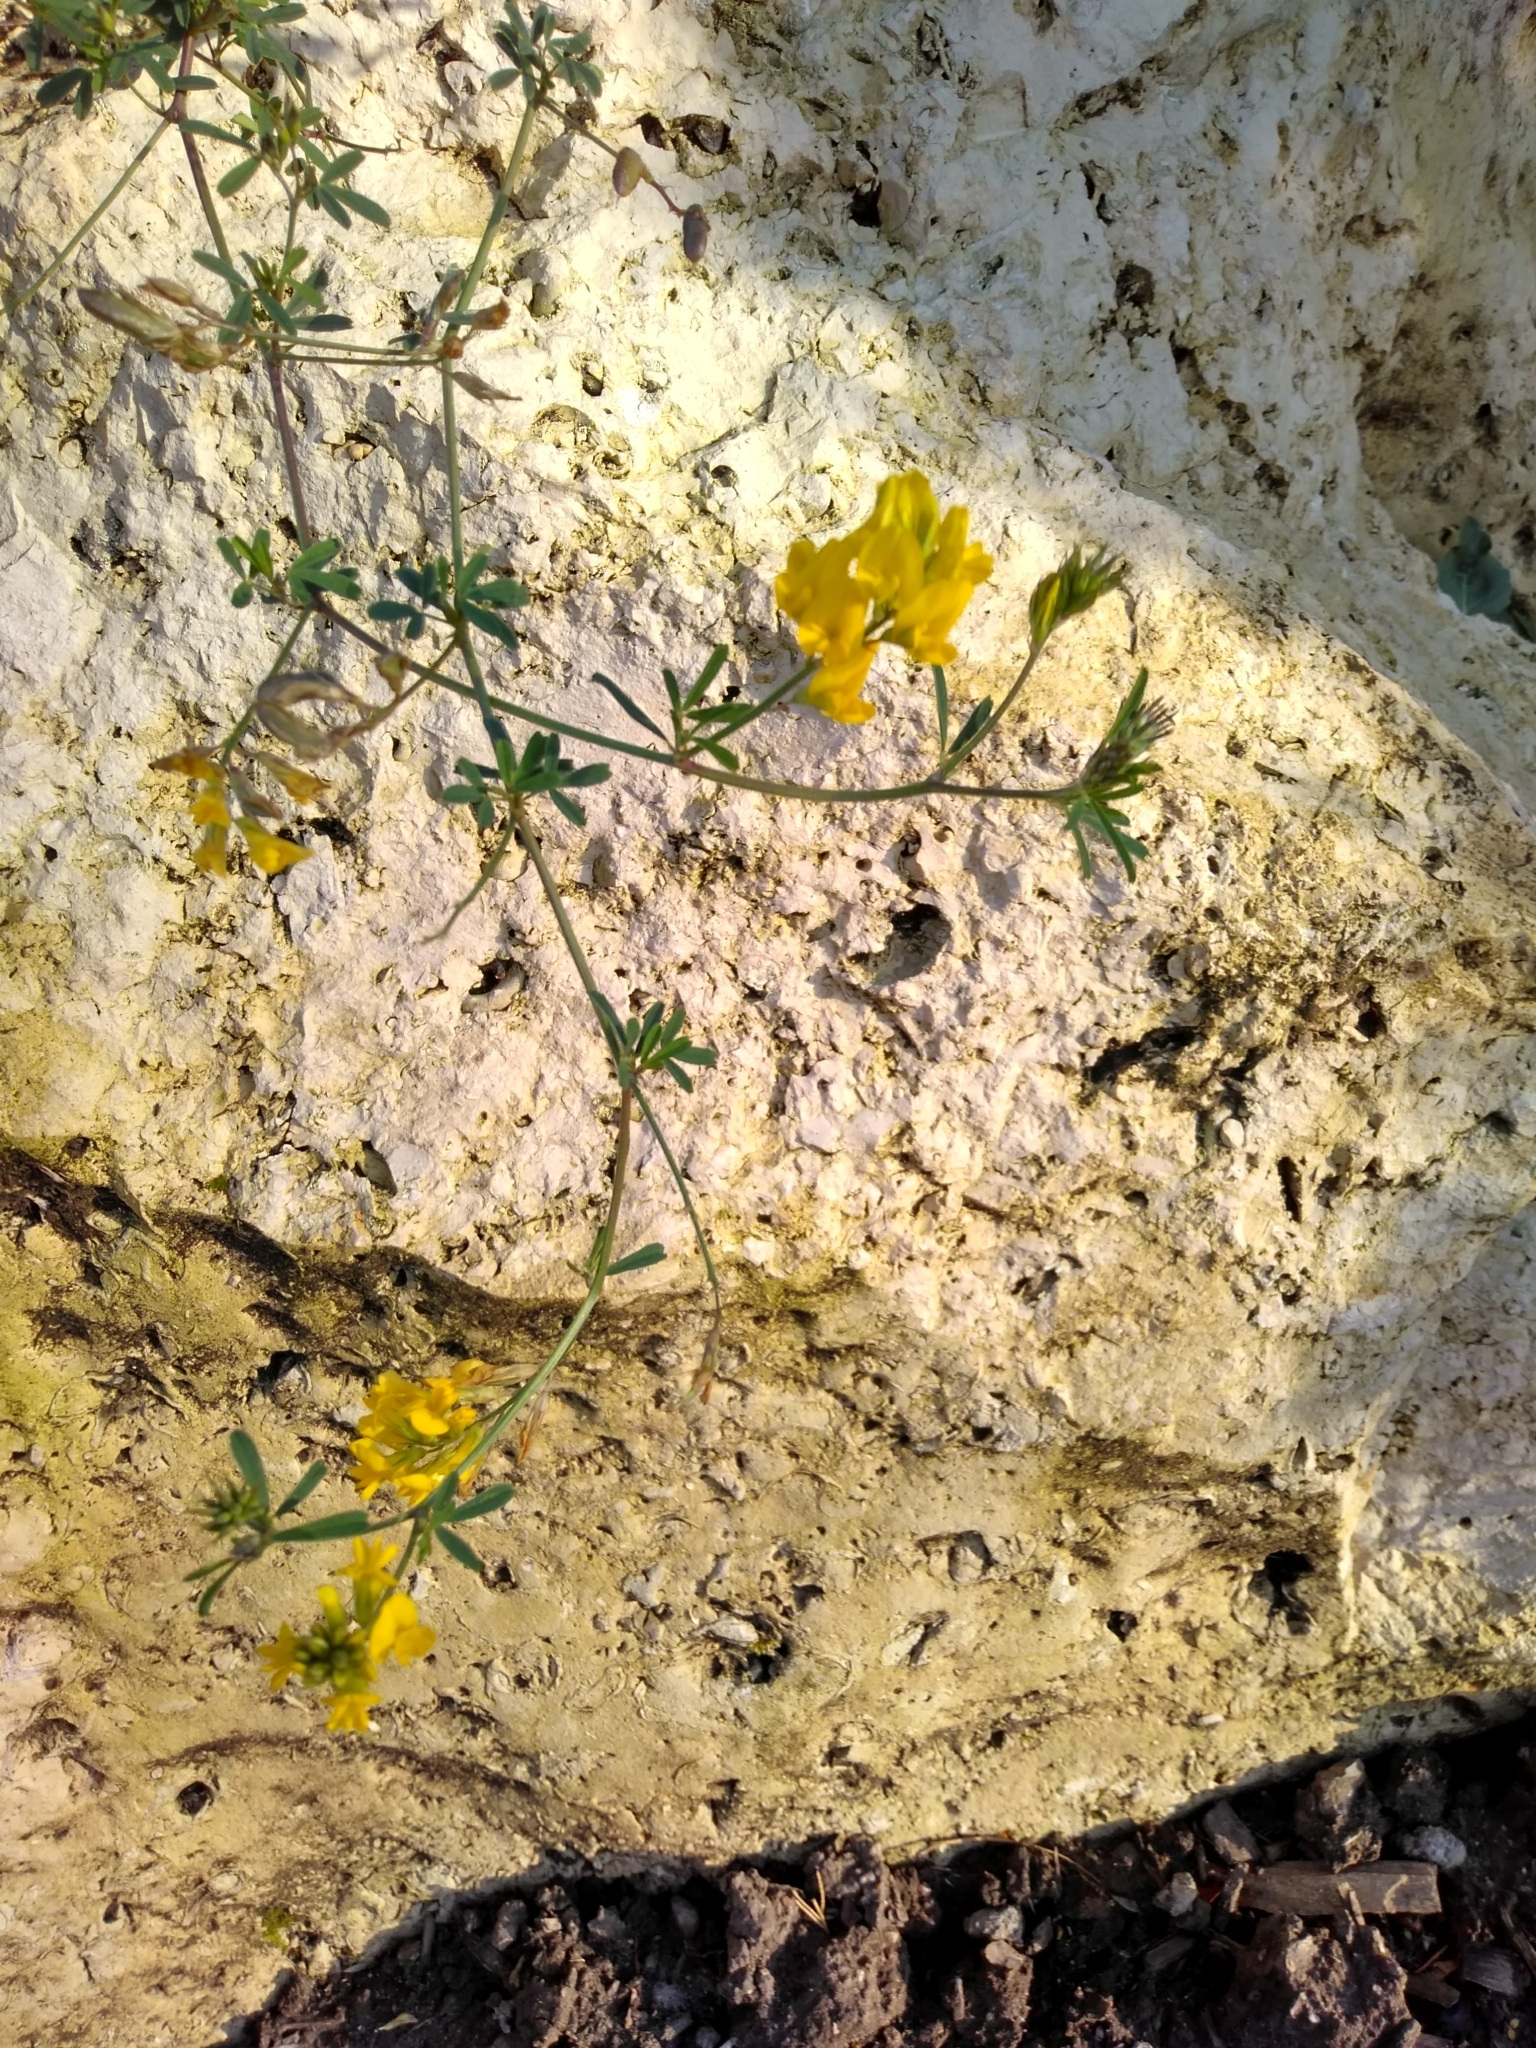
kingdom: Plantae
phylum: Tracheophyta
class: Magnoliopsida
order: Fabales
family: Fabaceae
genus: Medicago
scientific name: Medicago falcata
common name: Sickle medick
